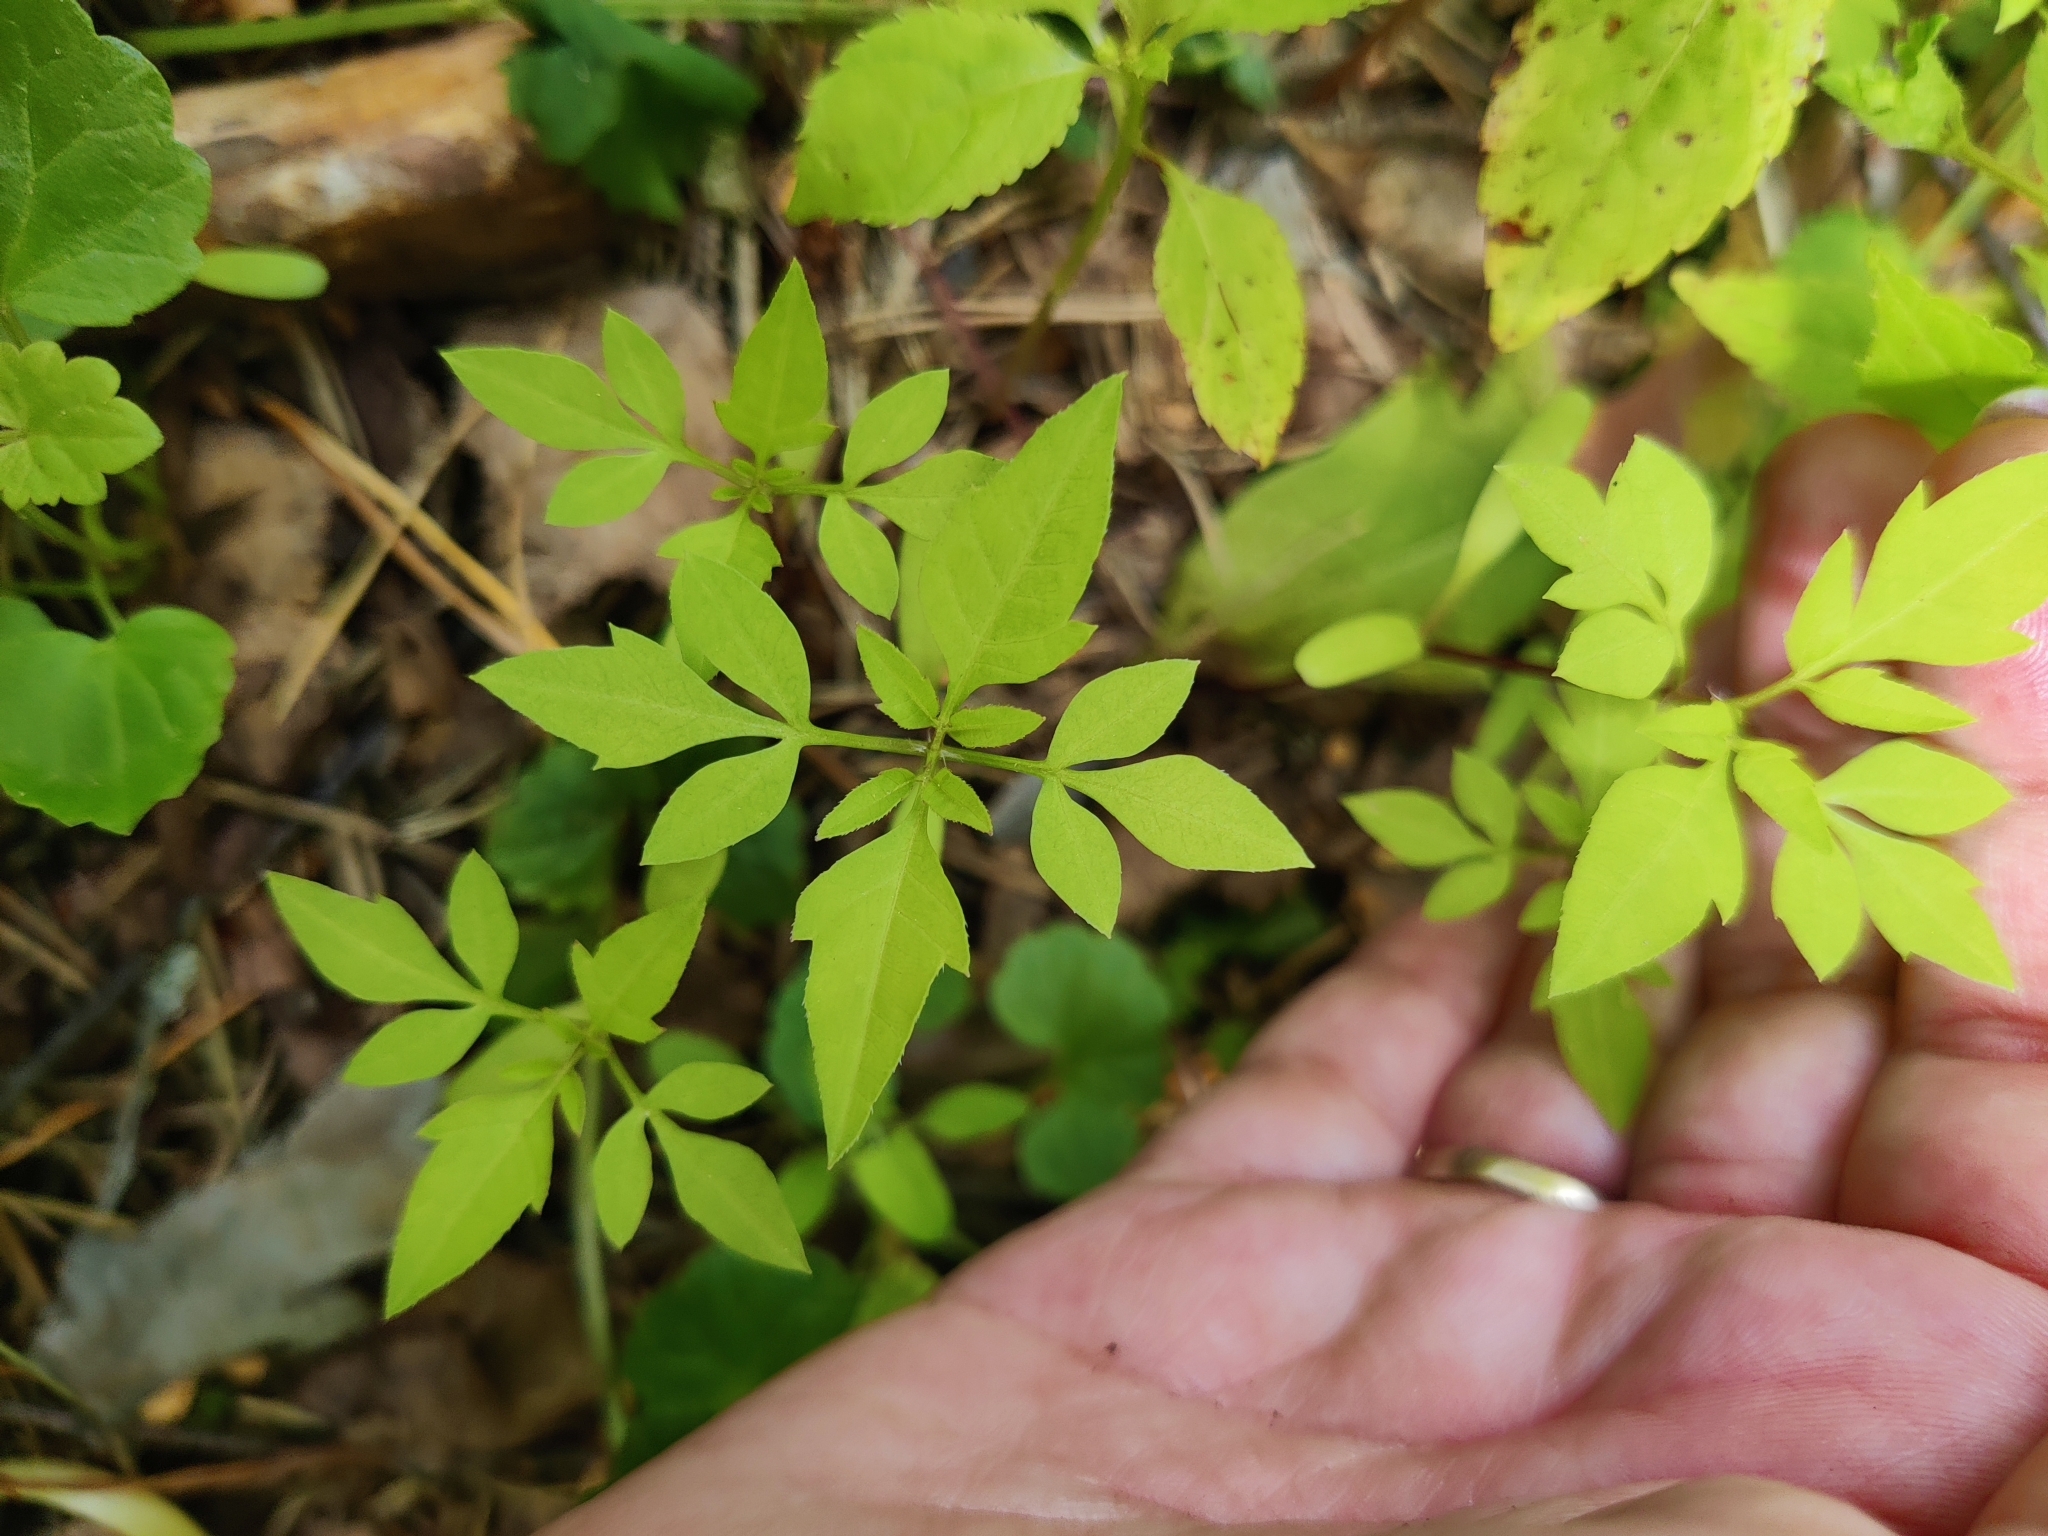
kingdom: Plantae
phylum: Tracheophyta
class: Magnoliopsida
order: Asterales
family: Asteraceae
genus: Bidens
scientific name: Bidens frondosa
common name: Beggarticks
